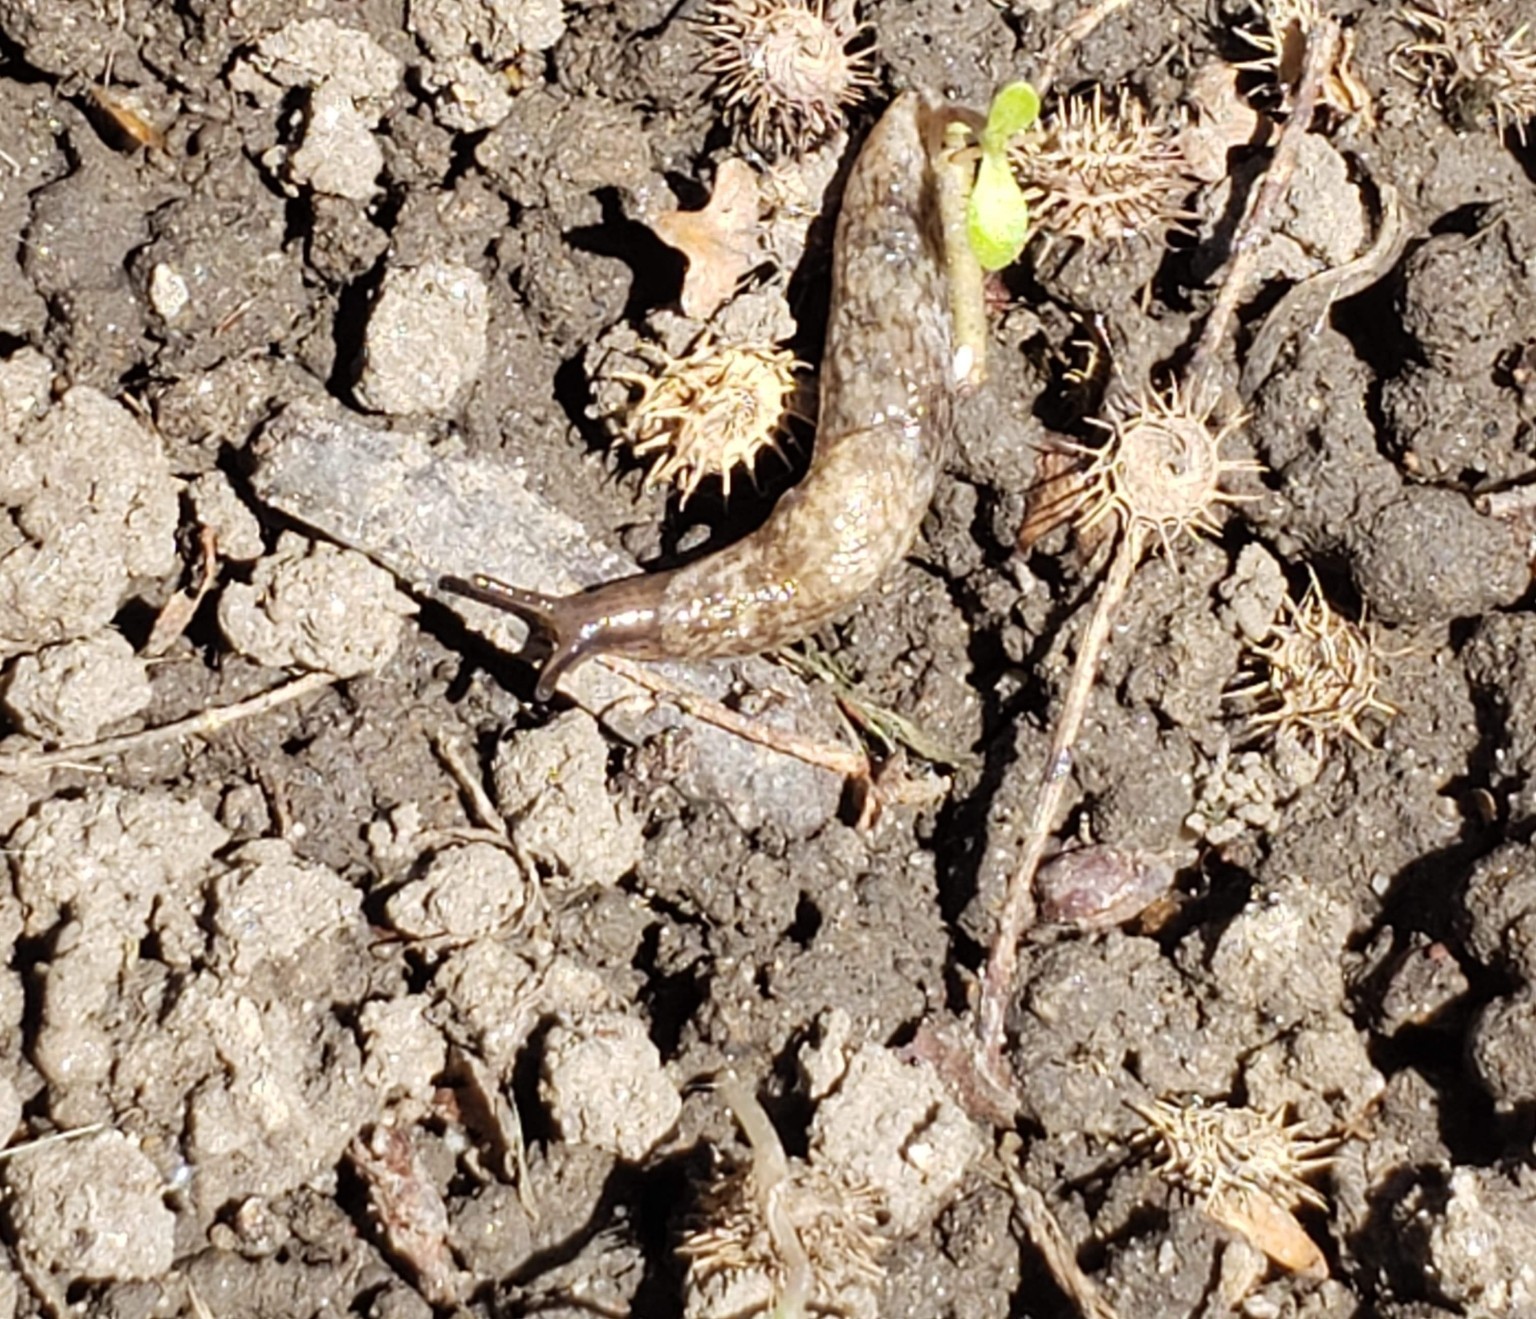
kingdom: Animalia
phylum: Mollusca
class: Gastropoda
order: Stylommatophora
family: Agriolimacidae
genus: Deroceras
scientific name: Deroceras reticulatum
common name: Gray field slug
